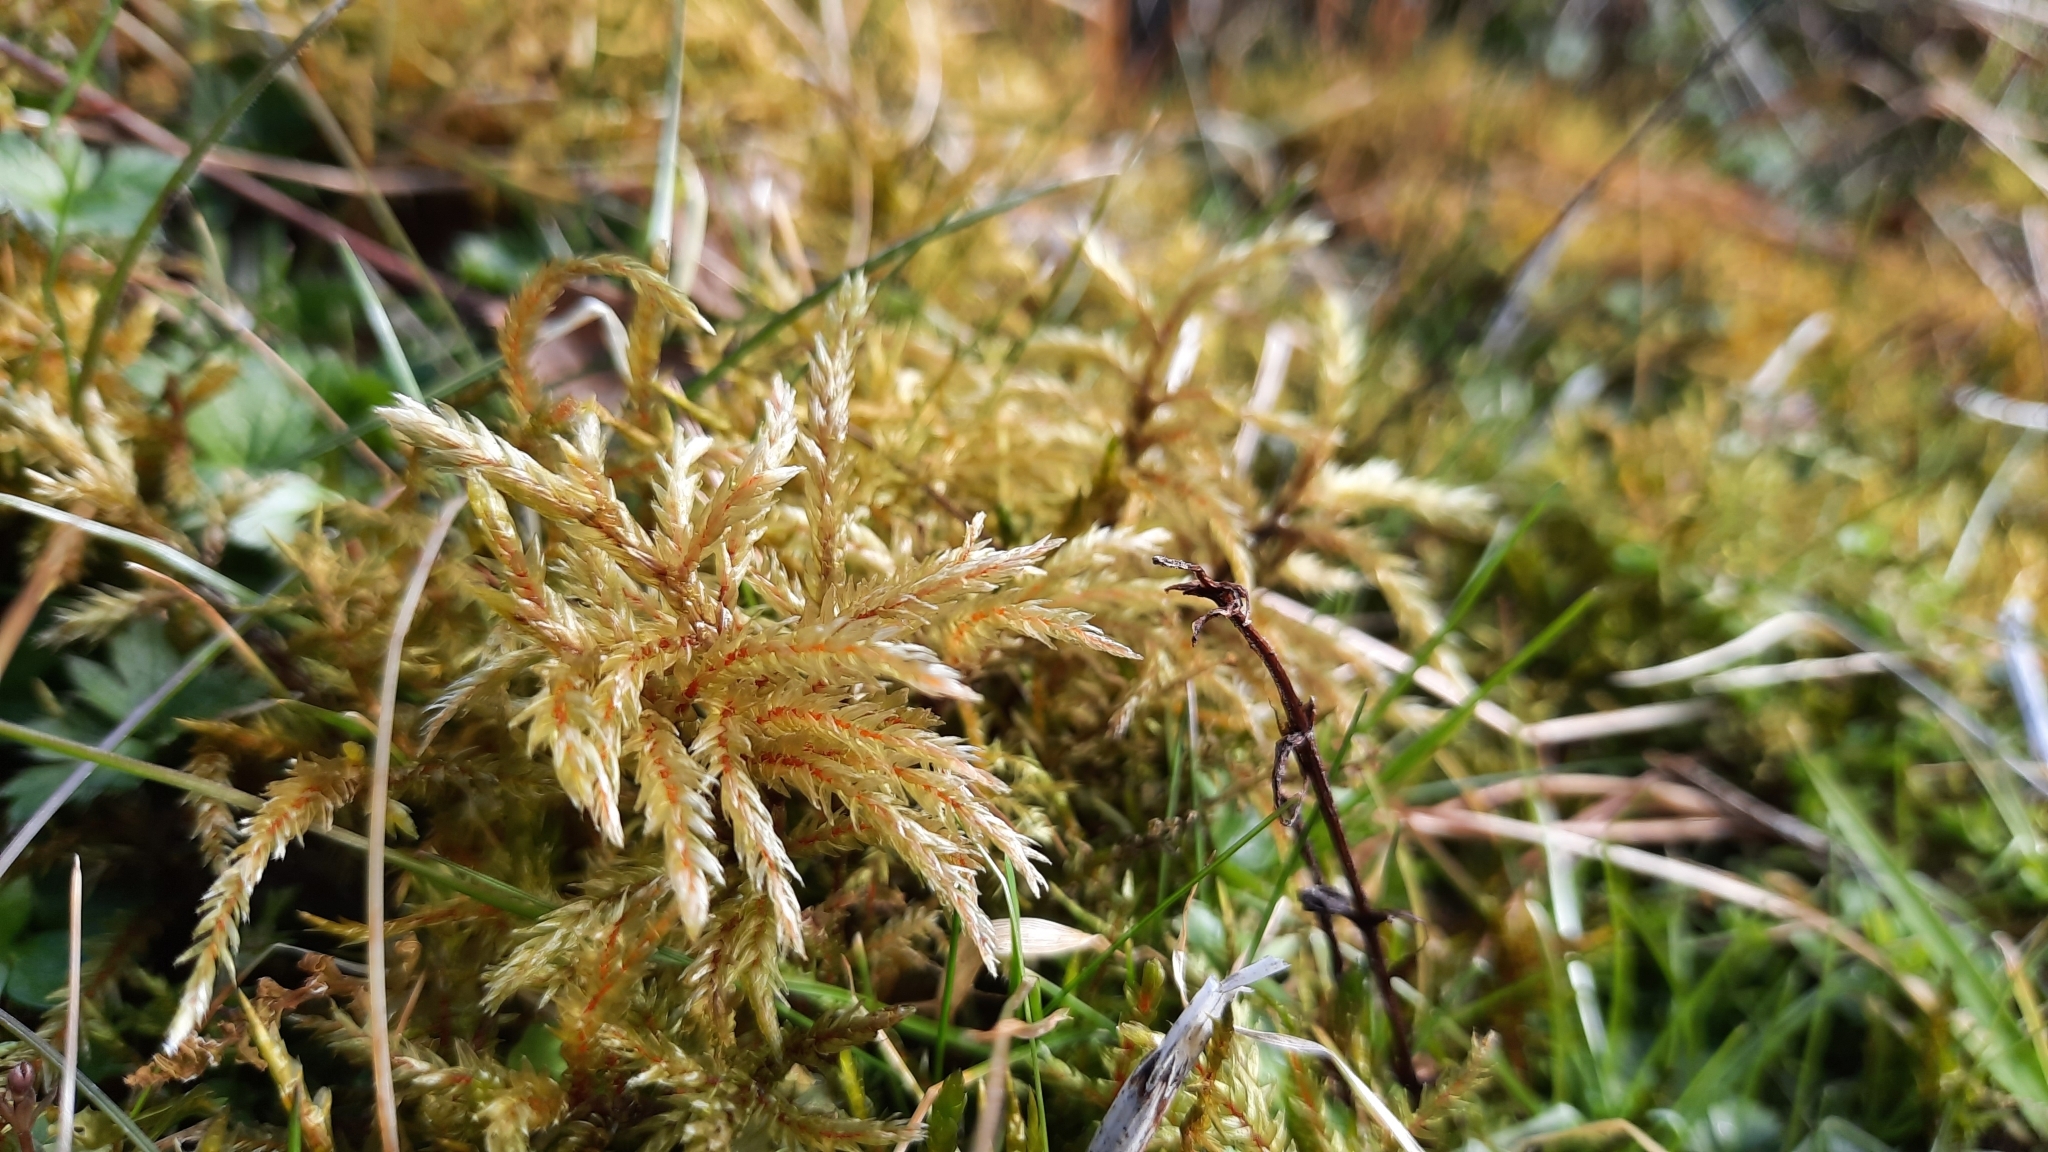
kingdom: Plantae
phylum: Bryophyta
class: Bryopsida
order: Hypnales
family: Climaciaceae
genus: Climacium
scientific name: Climacium dendroides
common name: Northern tree moss
